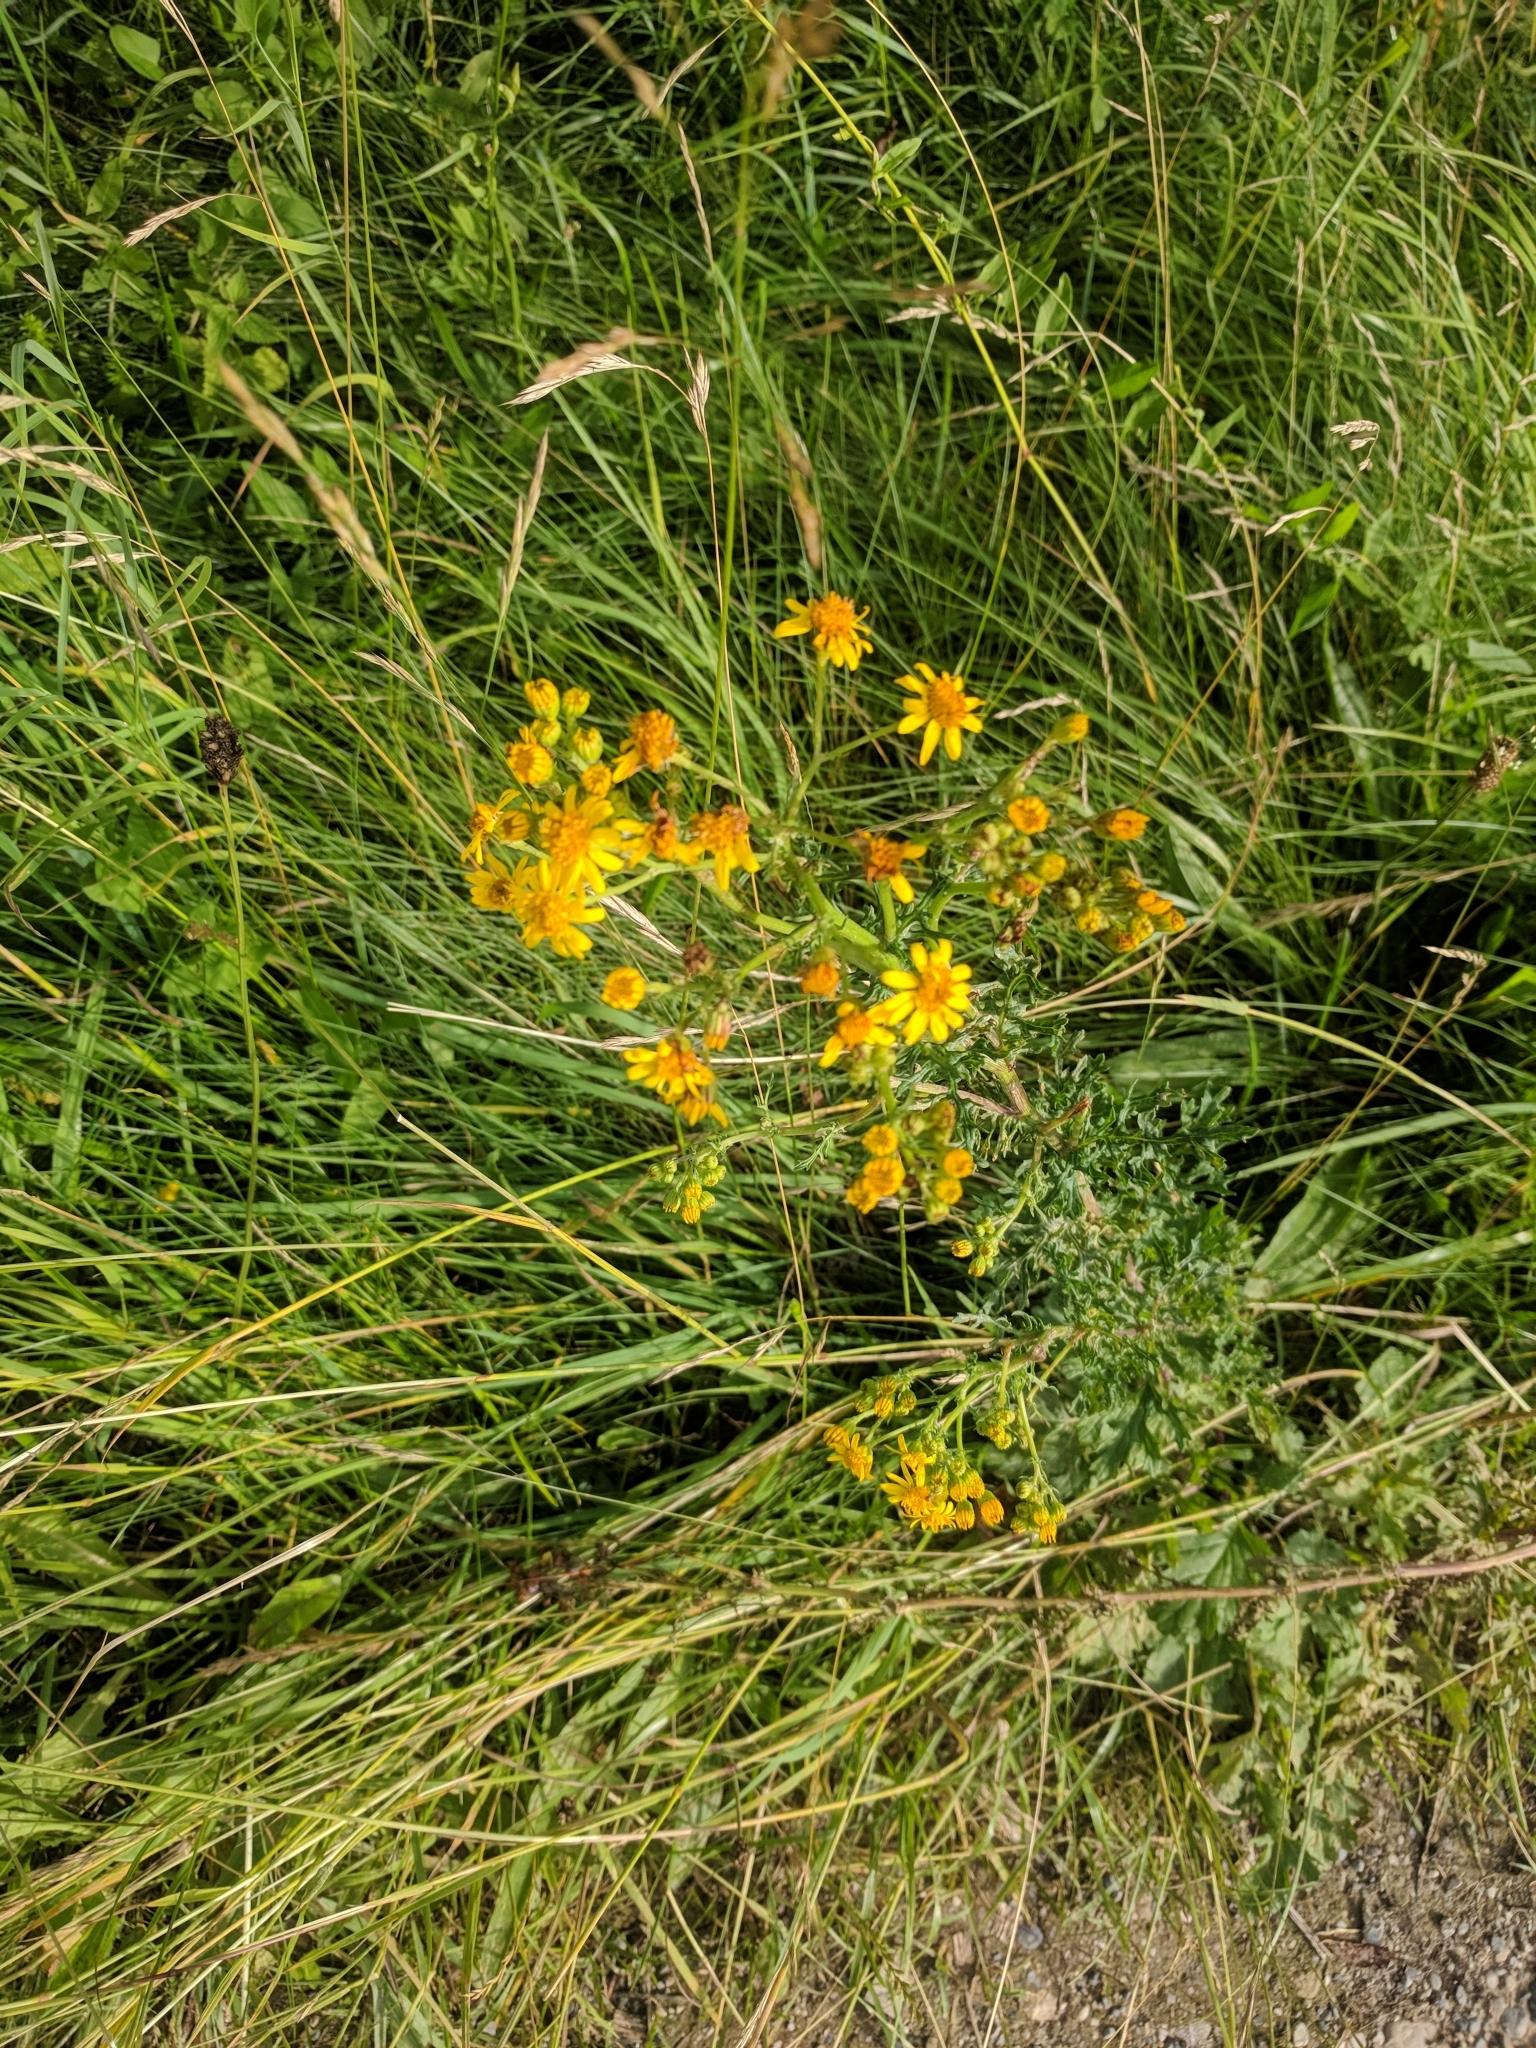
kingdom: Plantae
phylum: Tracheophyta
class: Magnoliopsida
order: Asterales
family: Asteraceae
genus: Jacobaea
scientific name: Jacobaea vulgaris
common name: Stinking willie
